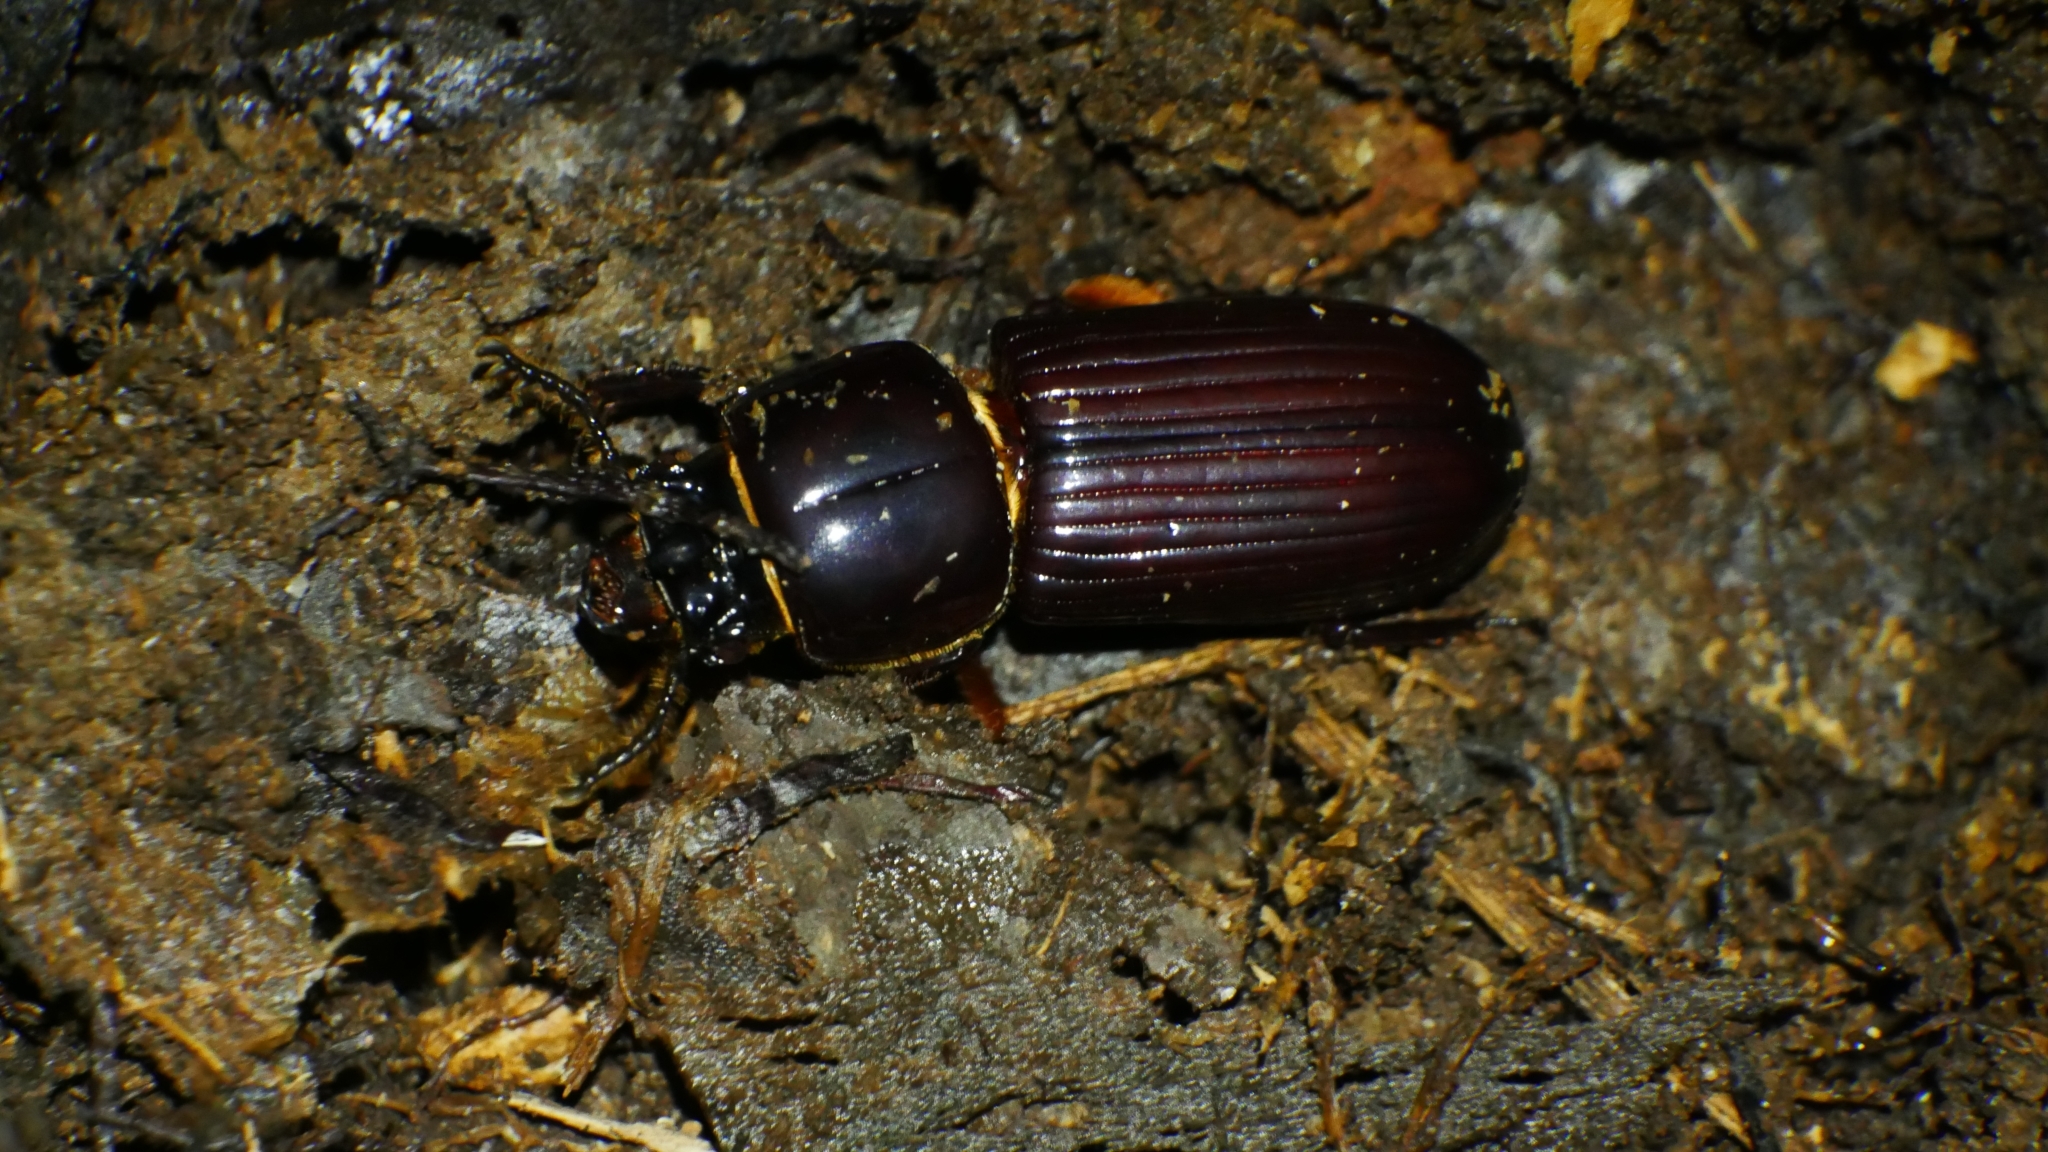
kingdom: Animalia
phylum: Arthropoda
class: Insecta
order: Coleoptera
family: Passalidae
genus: Odontotaenius
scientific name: Odontotaenius disjunctus
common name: Patent leather beetle
